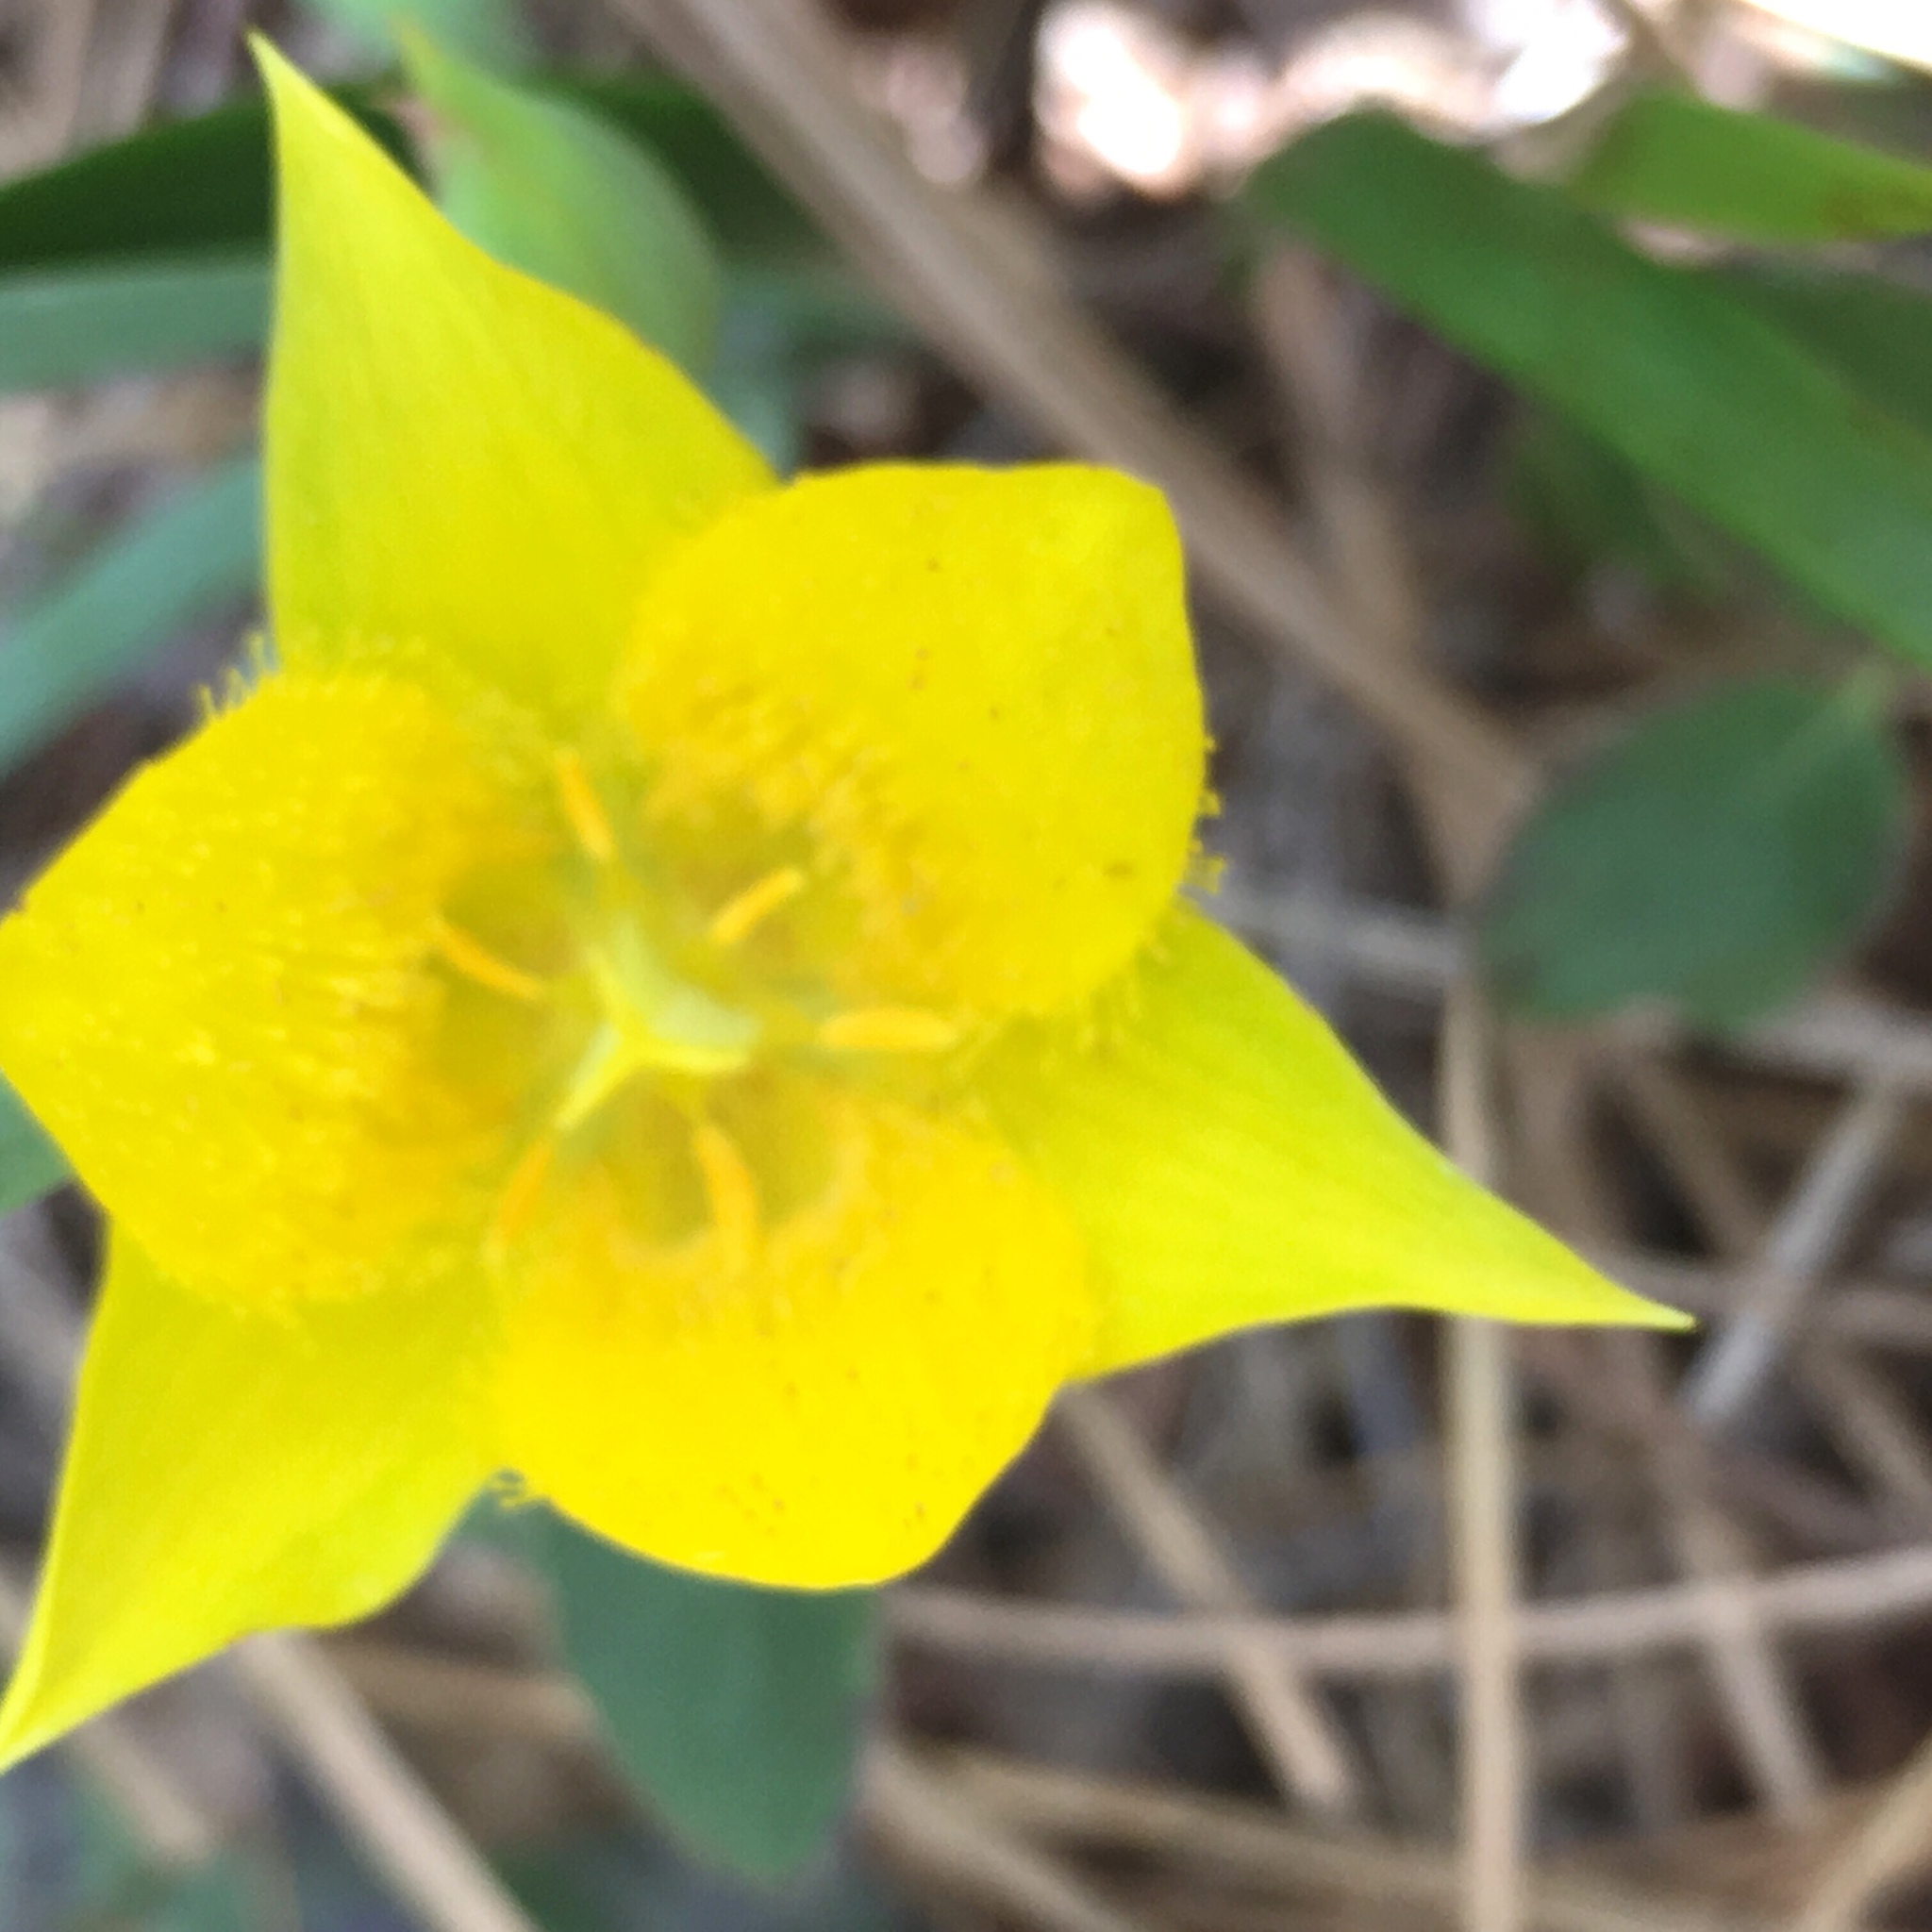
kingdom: Plantae
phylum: Tracheophyta
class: Liliopsida
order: Liliales
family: Liliaceae
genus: Calochortus
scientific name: Calochortus monophyllus
